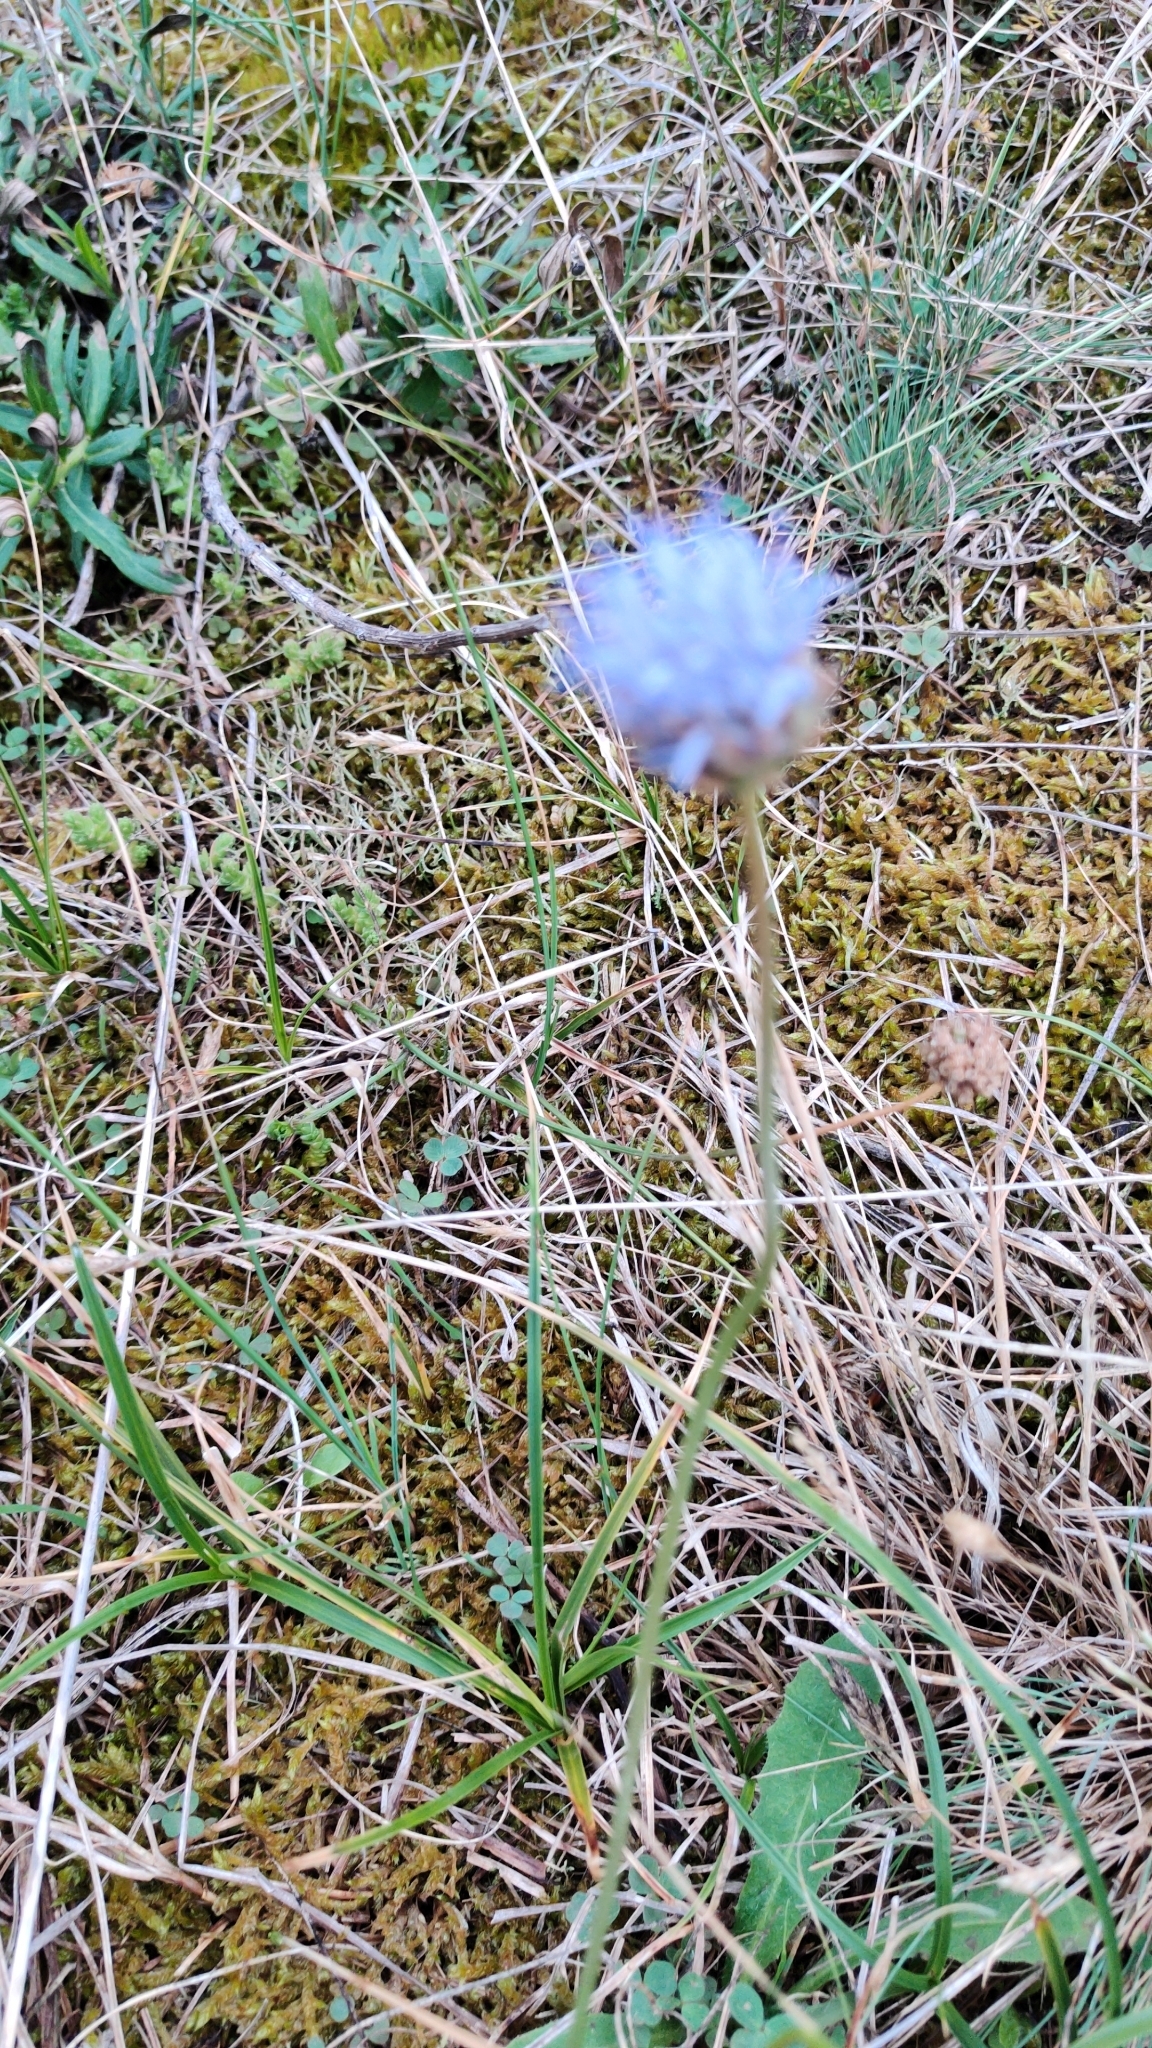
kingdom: Plantae
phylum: Tracheophyta
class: Magnoliopsida
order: Asterales
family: Campanulaceae
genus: Jasione
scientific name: Jasione montana
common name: Sheep's-bit
